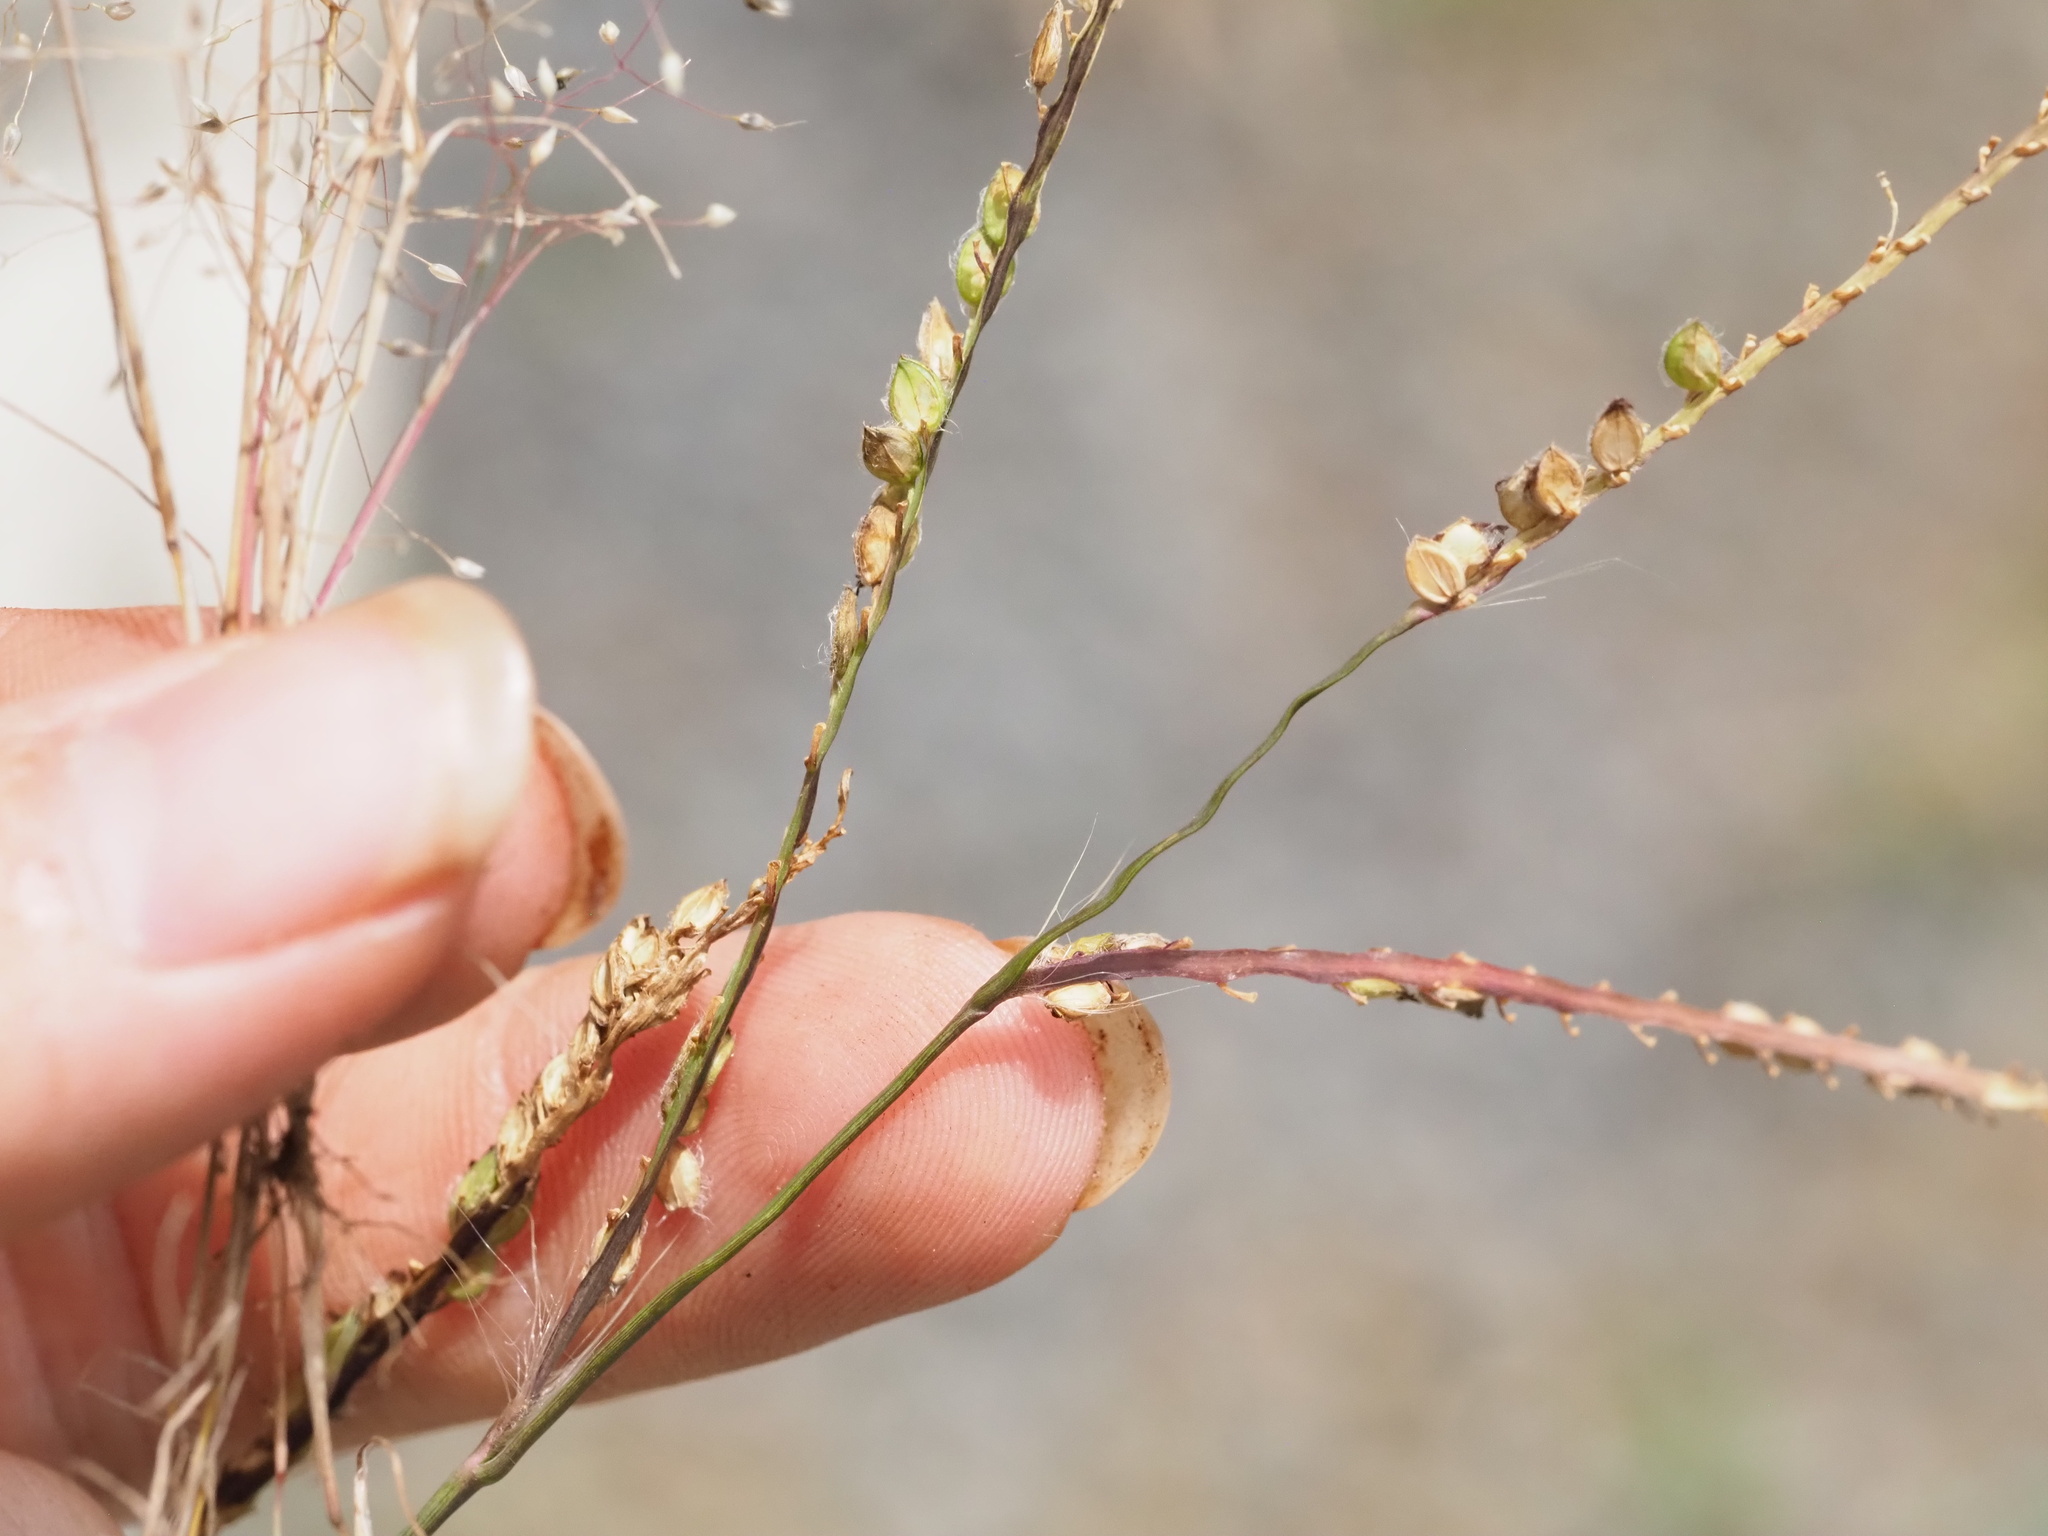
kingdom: Plantae
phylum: Tracheophyta
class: Liliopsida
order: Poales
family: Poaceae
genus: Paspalum
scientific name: Paspalum dilatatum
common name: Dallisgrass
